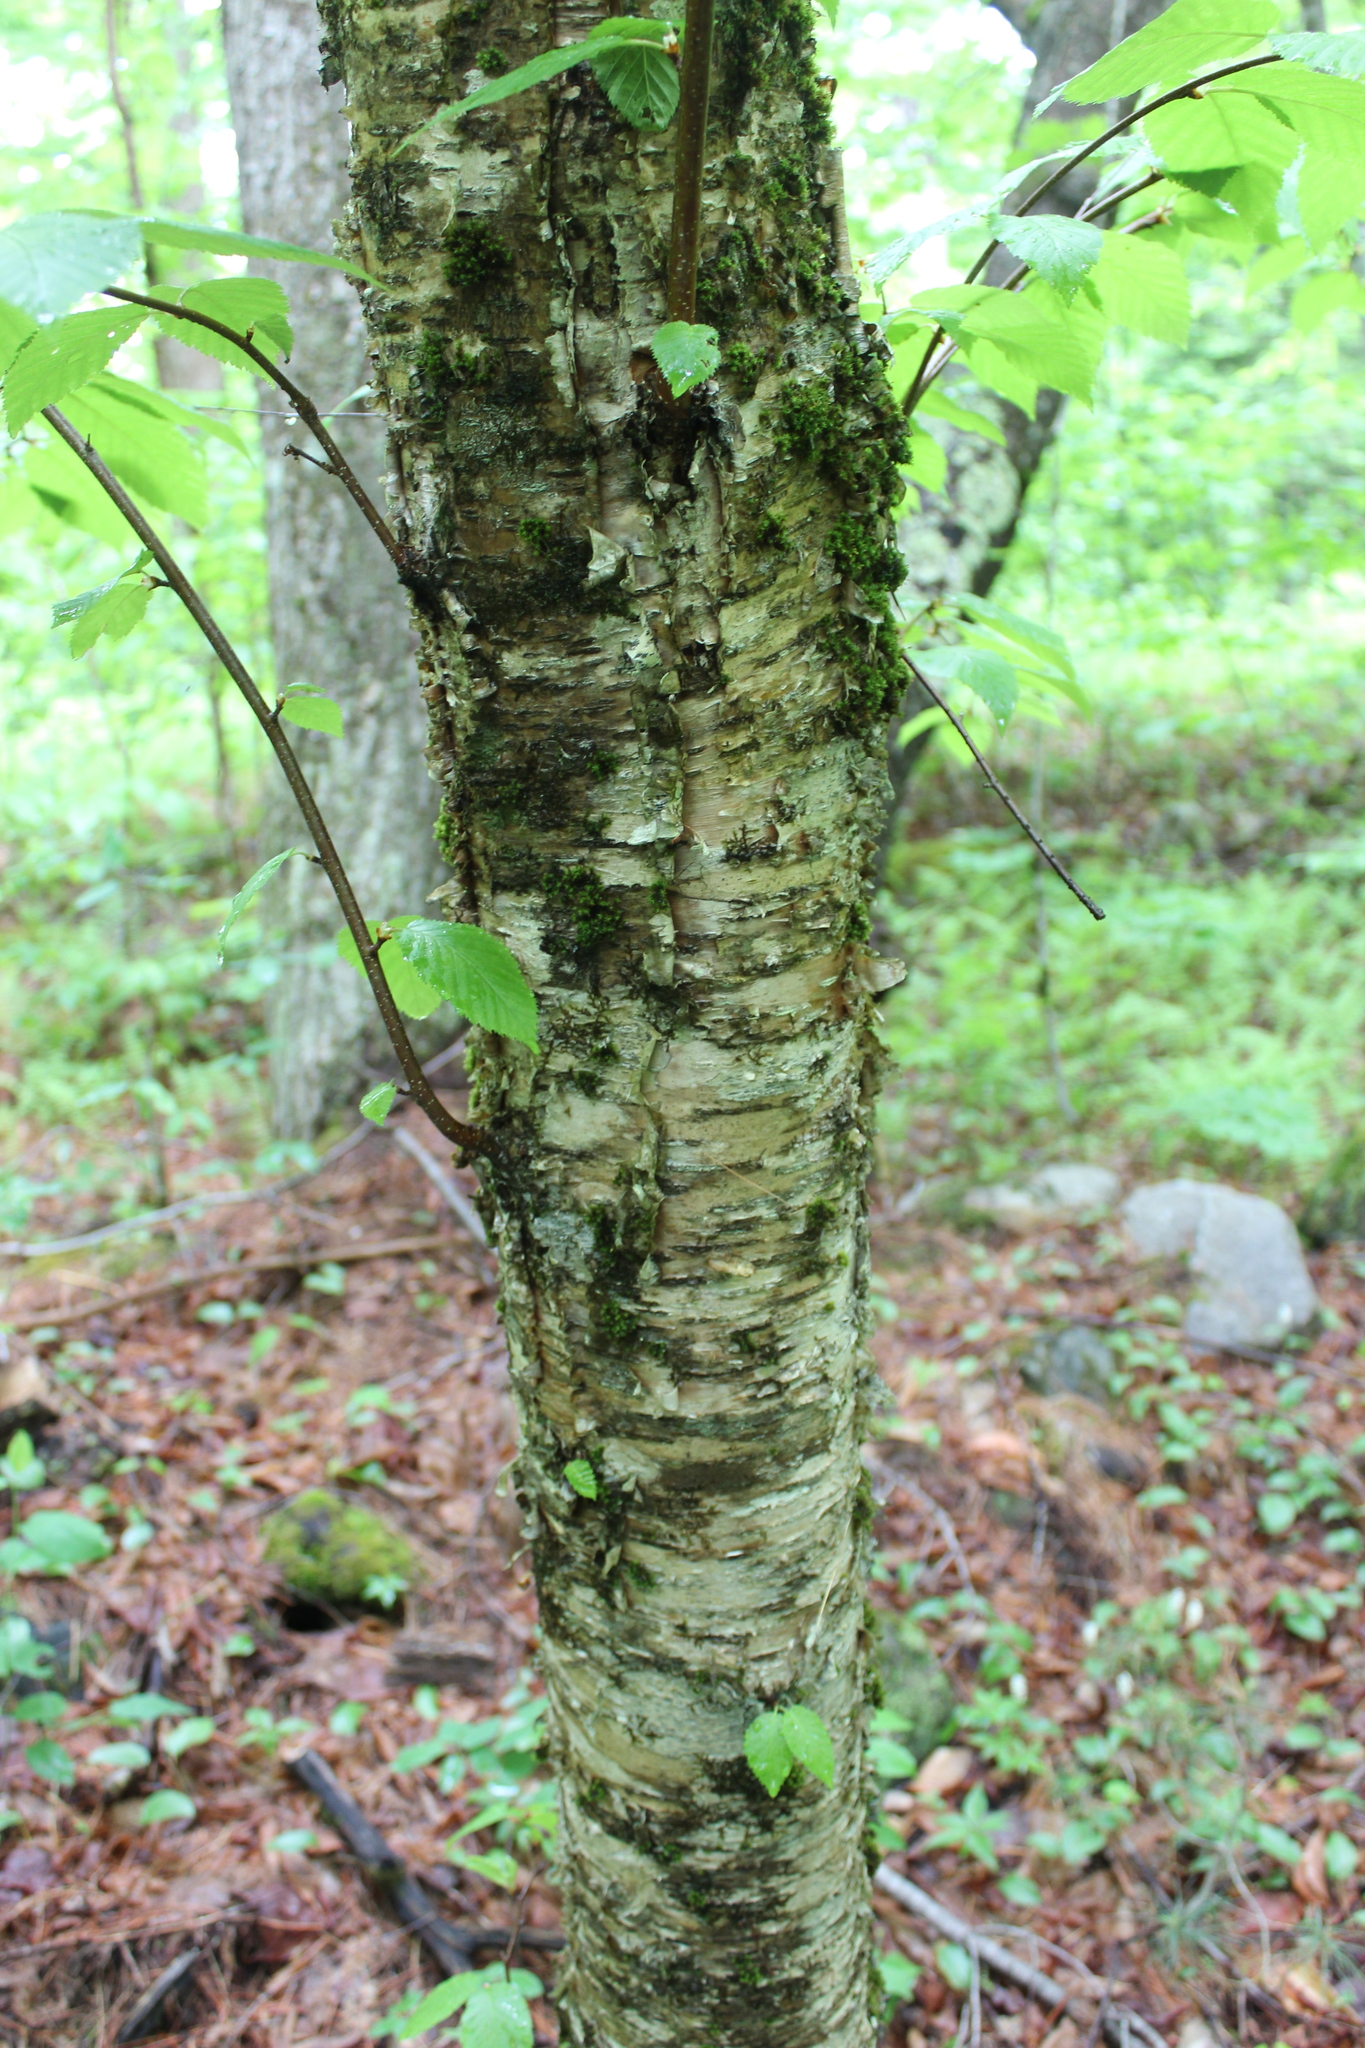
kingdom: Plantae
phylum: Tracheophyta
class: Magnoliopsida
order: Fagales
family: Betulaceae
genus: Betula
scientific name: Betula alleghaniensis
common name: Yellow birch
